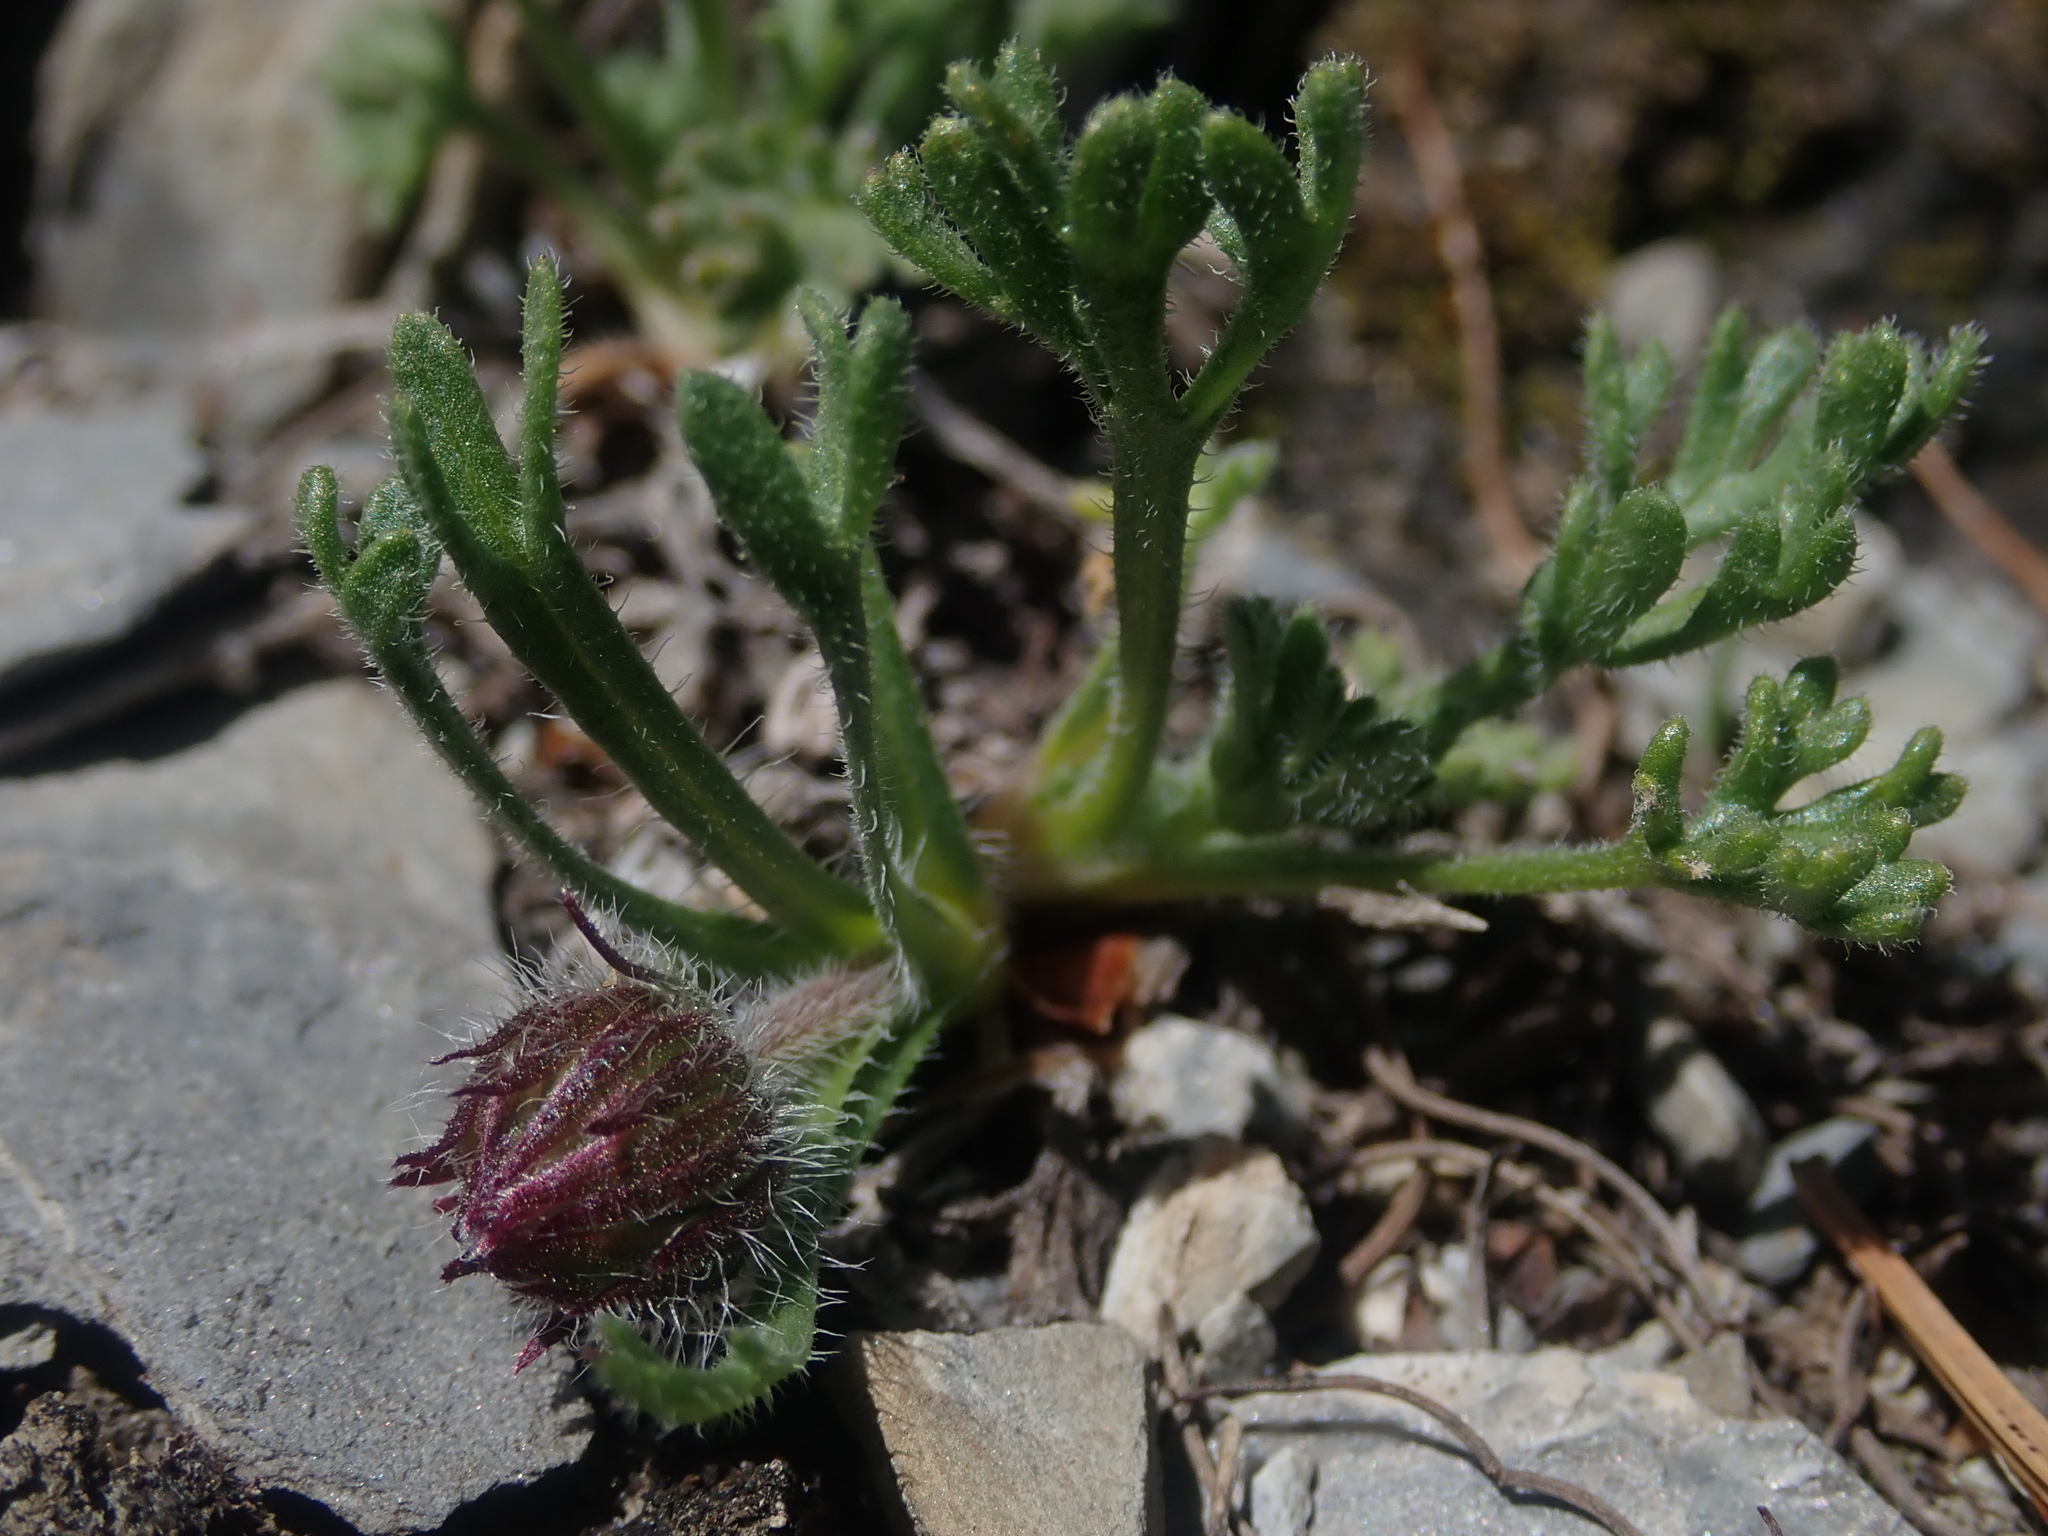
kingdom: Plantae
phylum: Tracheophyta
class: Magnoliopsida
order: Asterales
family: Asteraceae
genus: Erigeron
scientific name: Erigeron compositus
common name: Dwarf mountain fleabane
